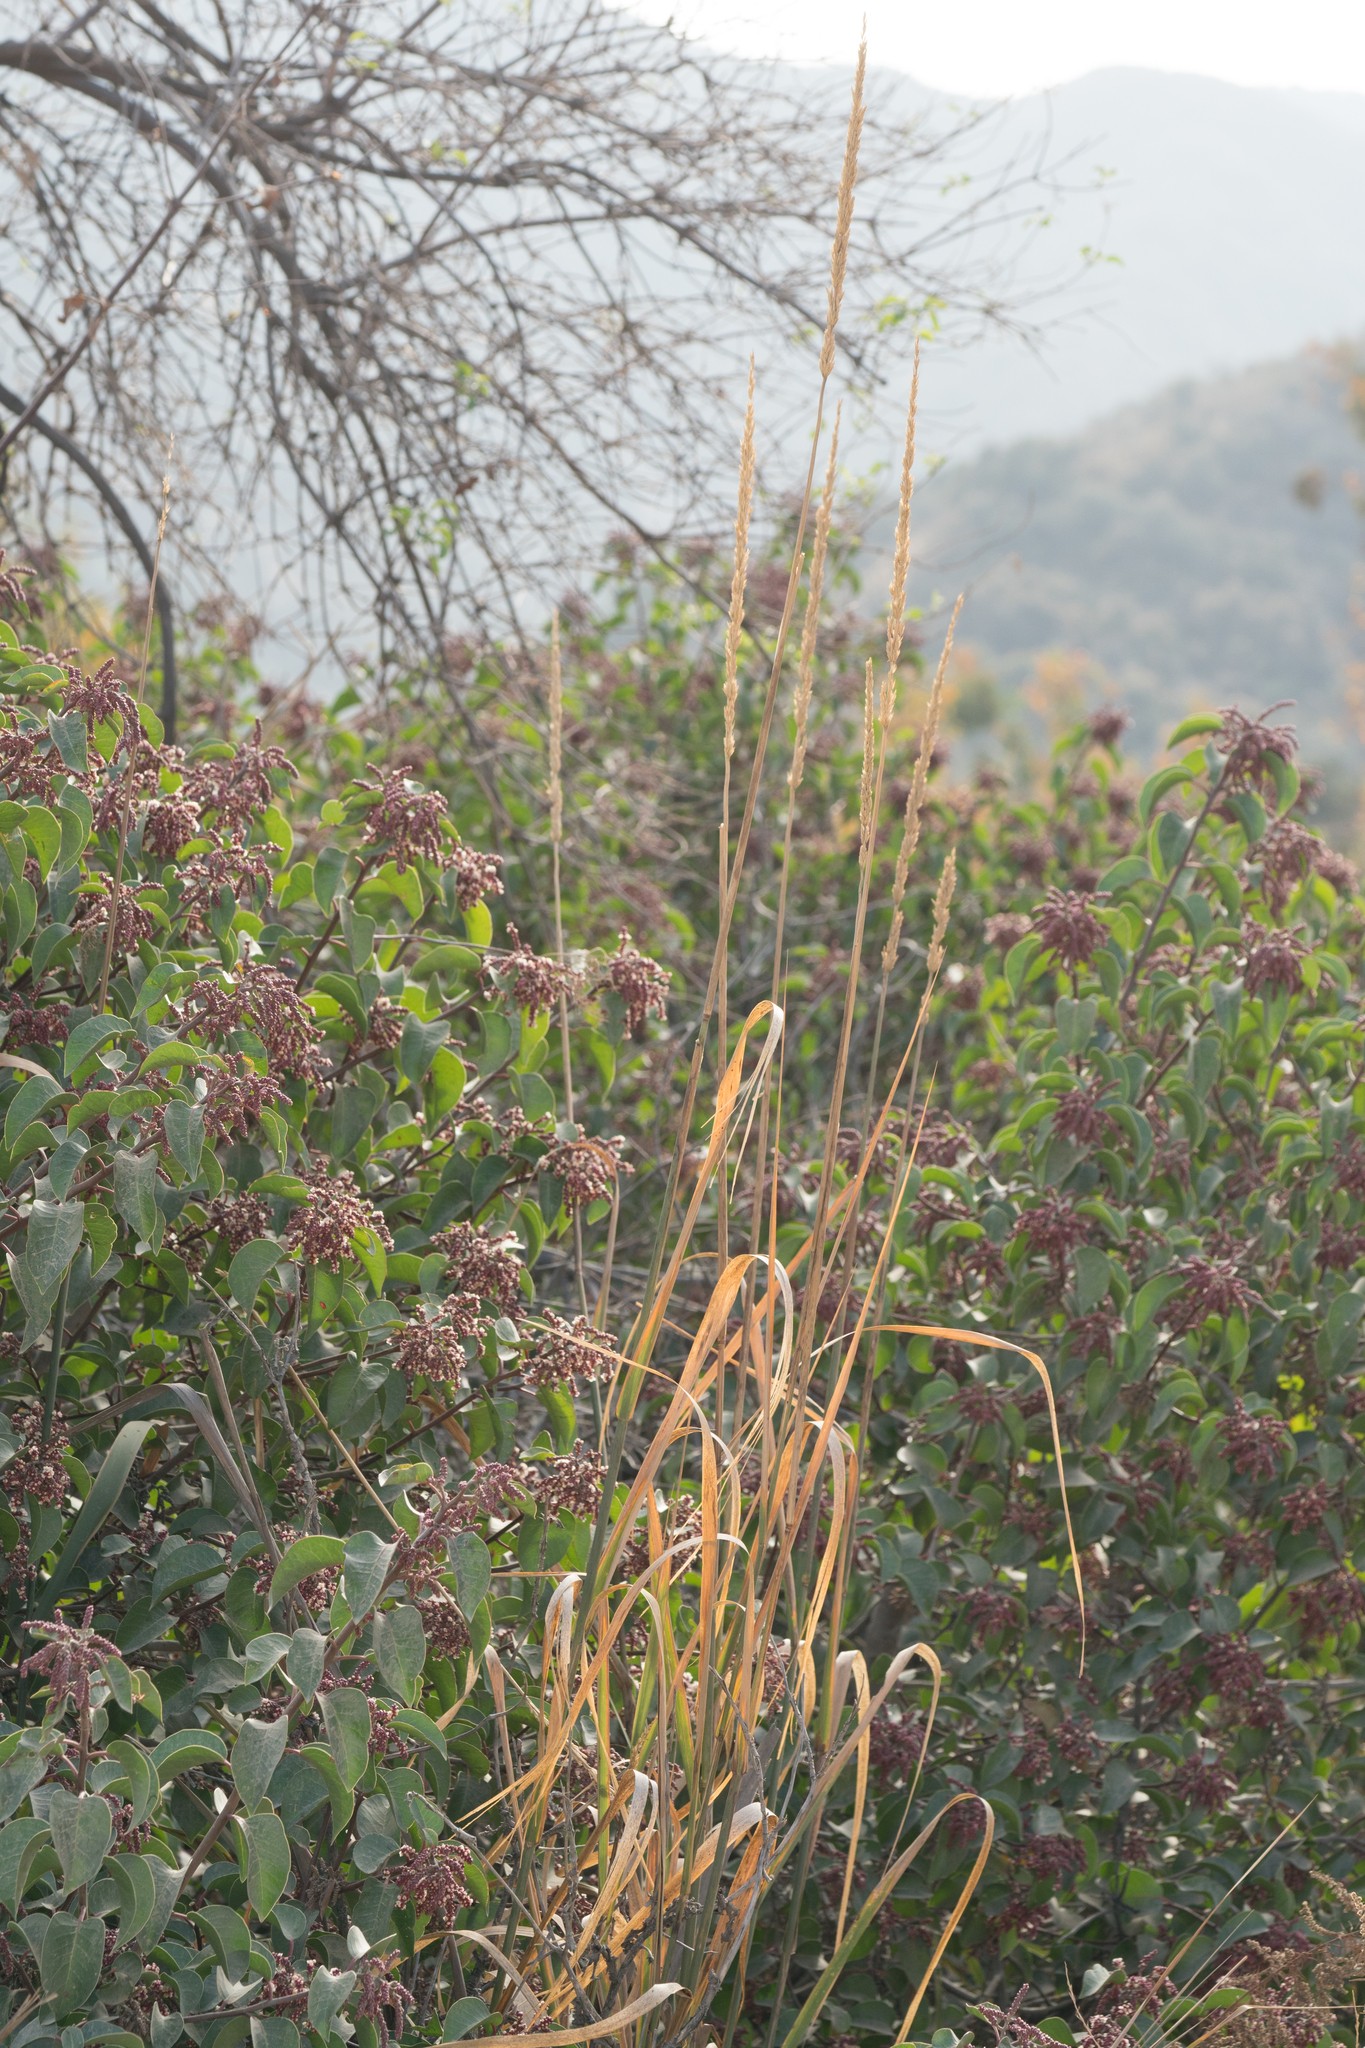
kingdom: Plantae
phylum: Tracheophyta
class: Liliopsida
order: Poales
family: Poaceae
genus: Leymus
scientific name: Leymus condensatus
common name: Giant wild rye
